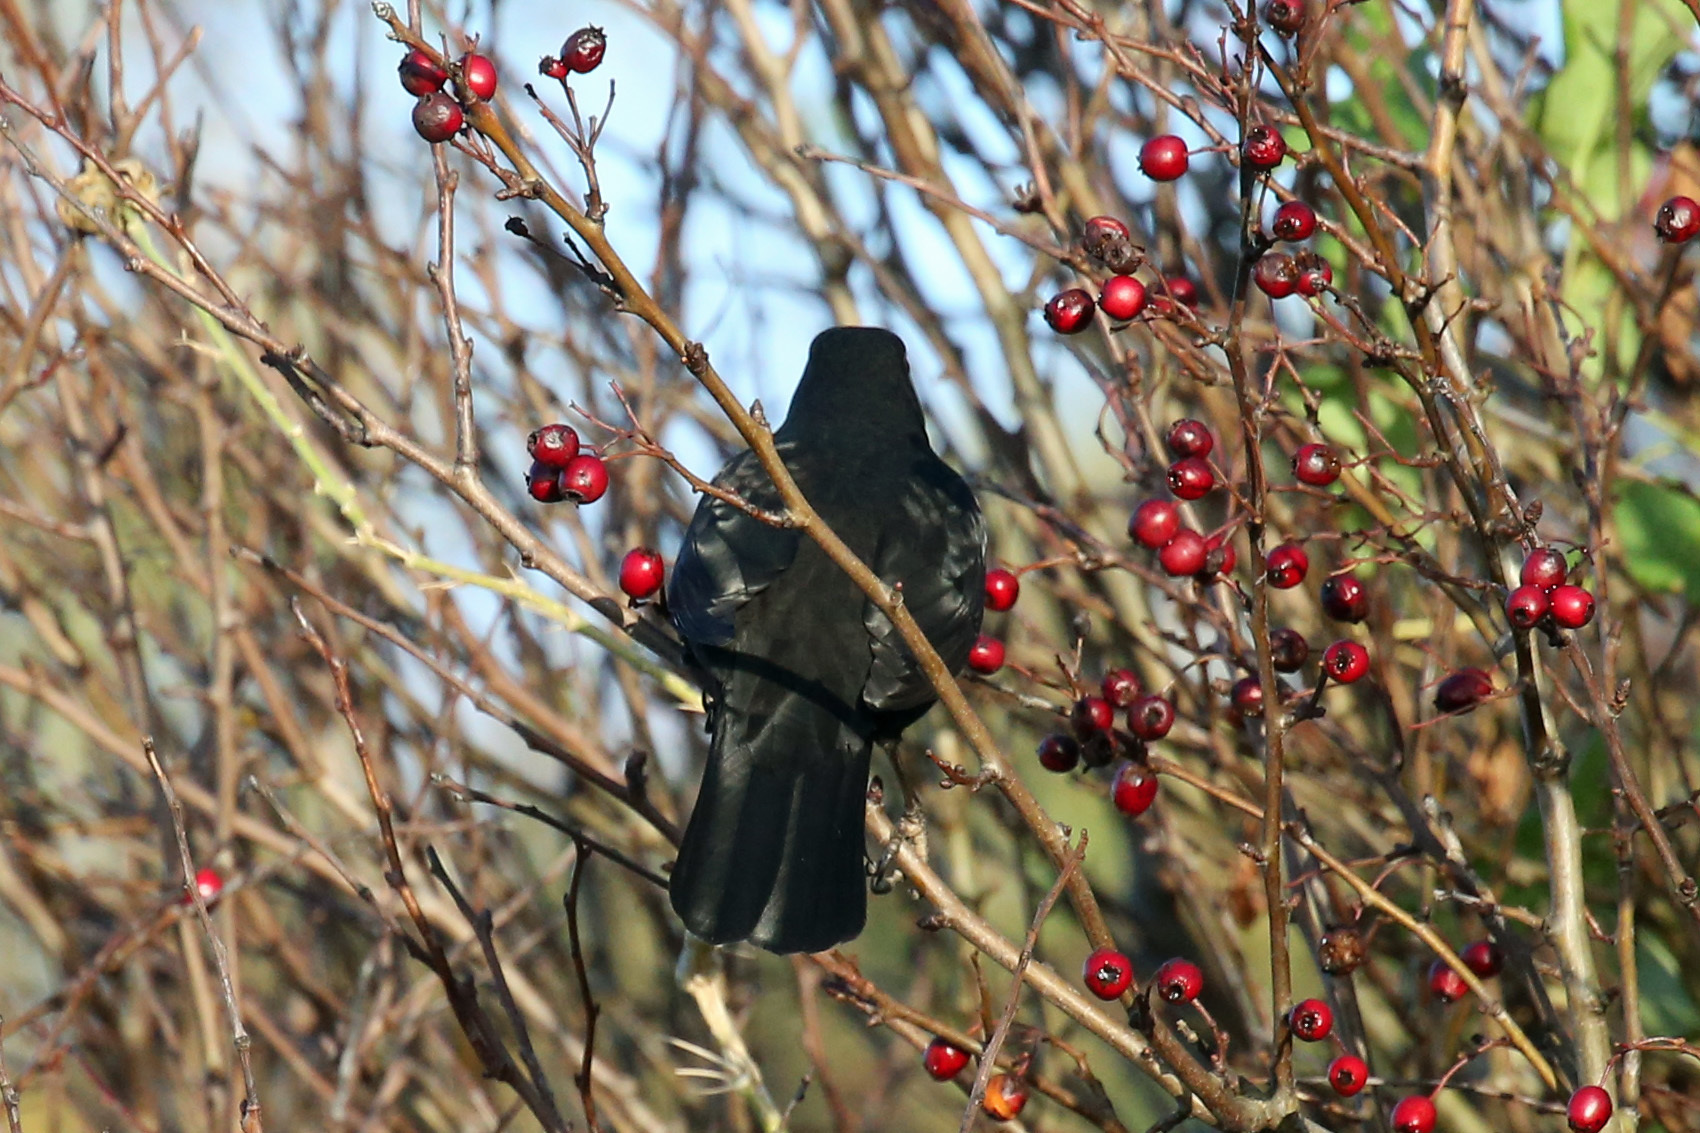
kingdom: Animalia
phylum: Chordata
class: Aves
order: Passeriformes
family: Turdidae
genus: Turdus
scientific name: Turdus merula
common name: Common blackbird
